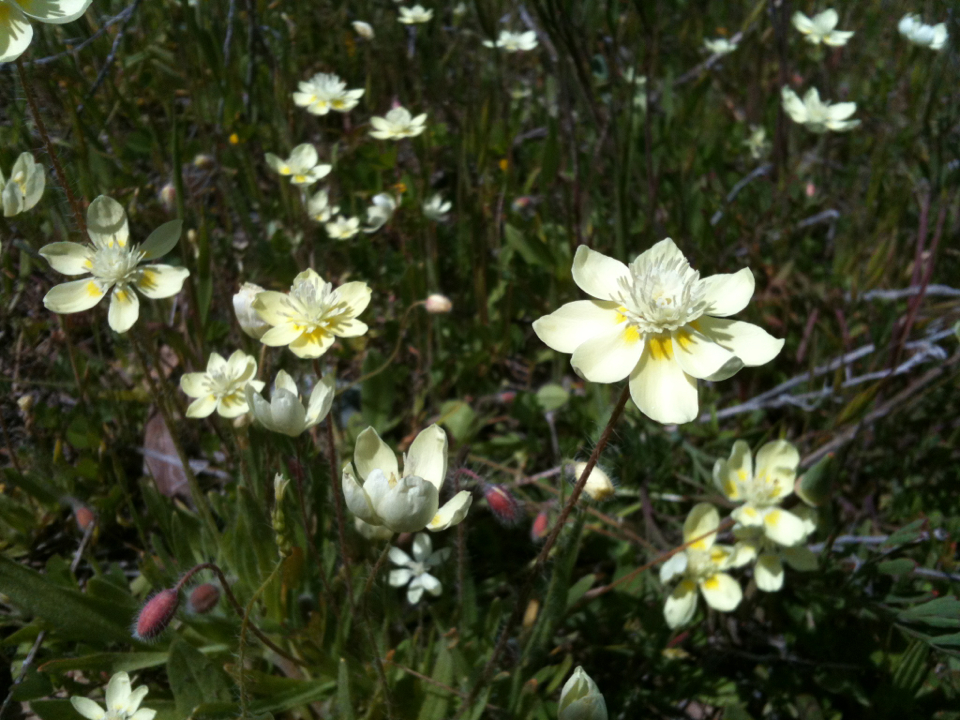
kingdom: Plantae
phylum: Tracheophyta
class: Magnoliopsida
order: Ranunculales
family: Papaveraceae
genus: Platystemon
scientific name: Platystemon californicus
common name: Cream-cups
